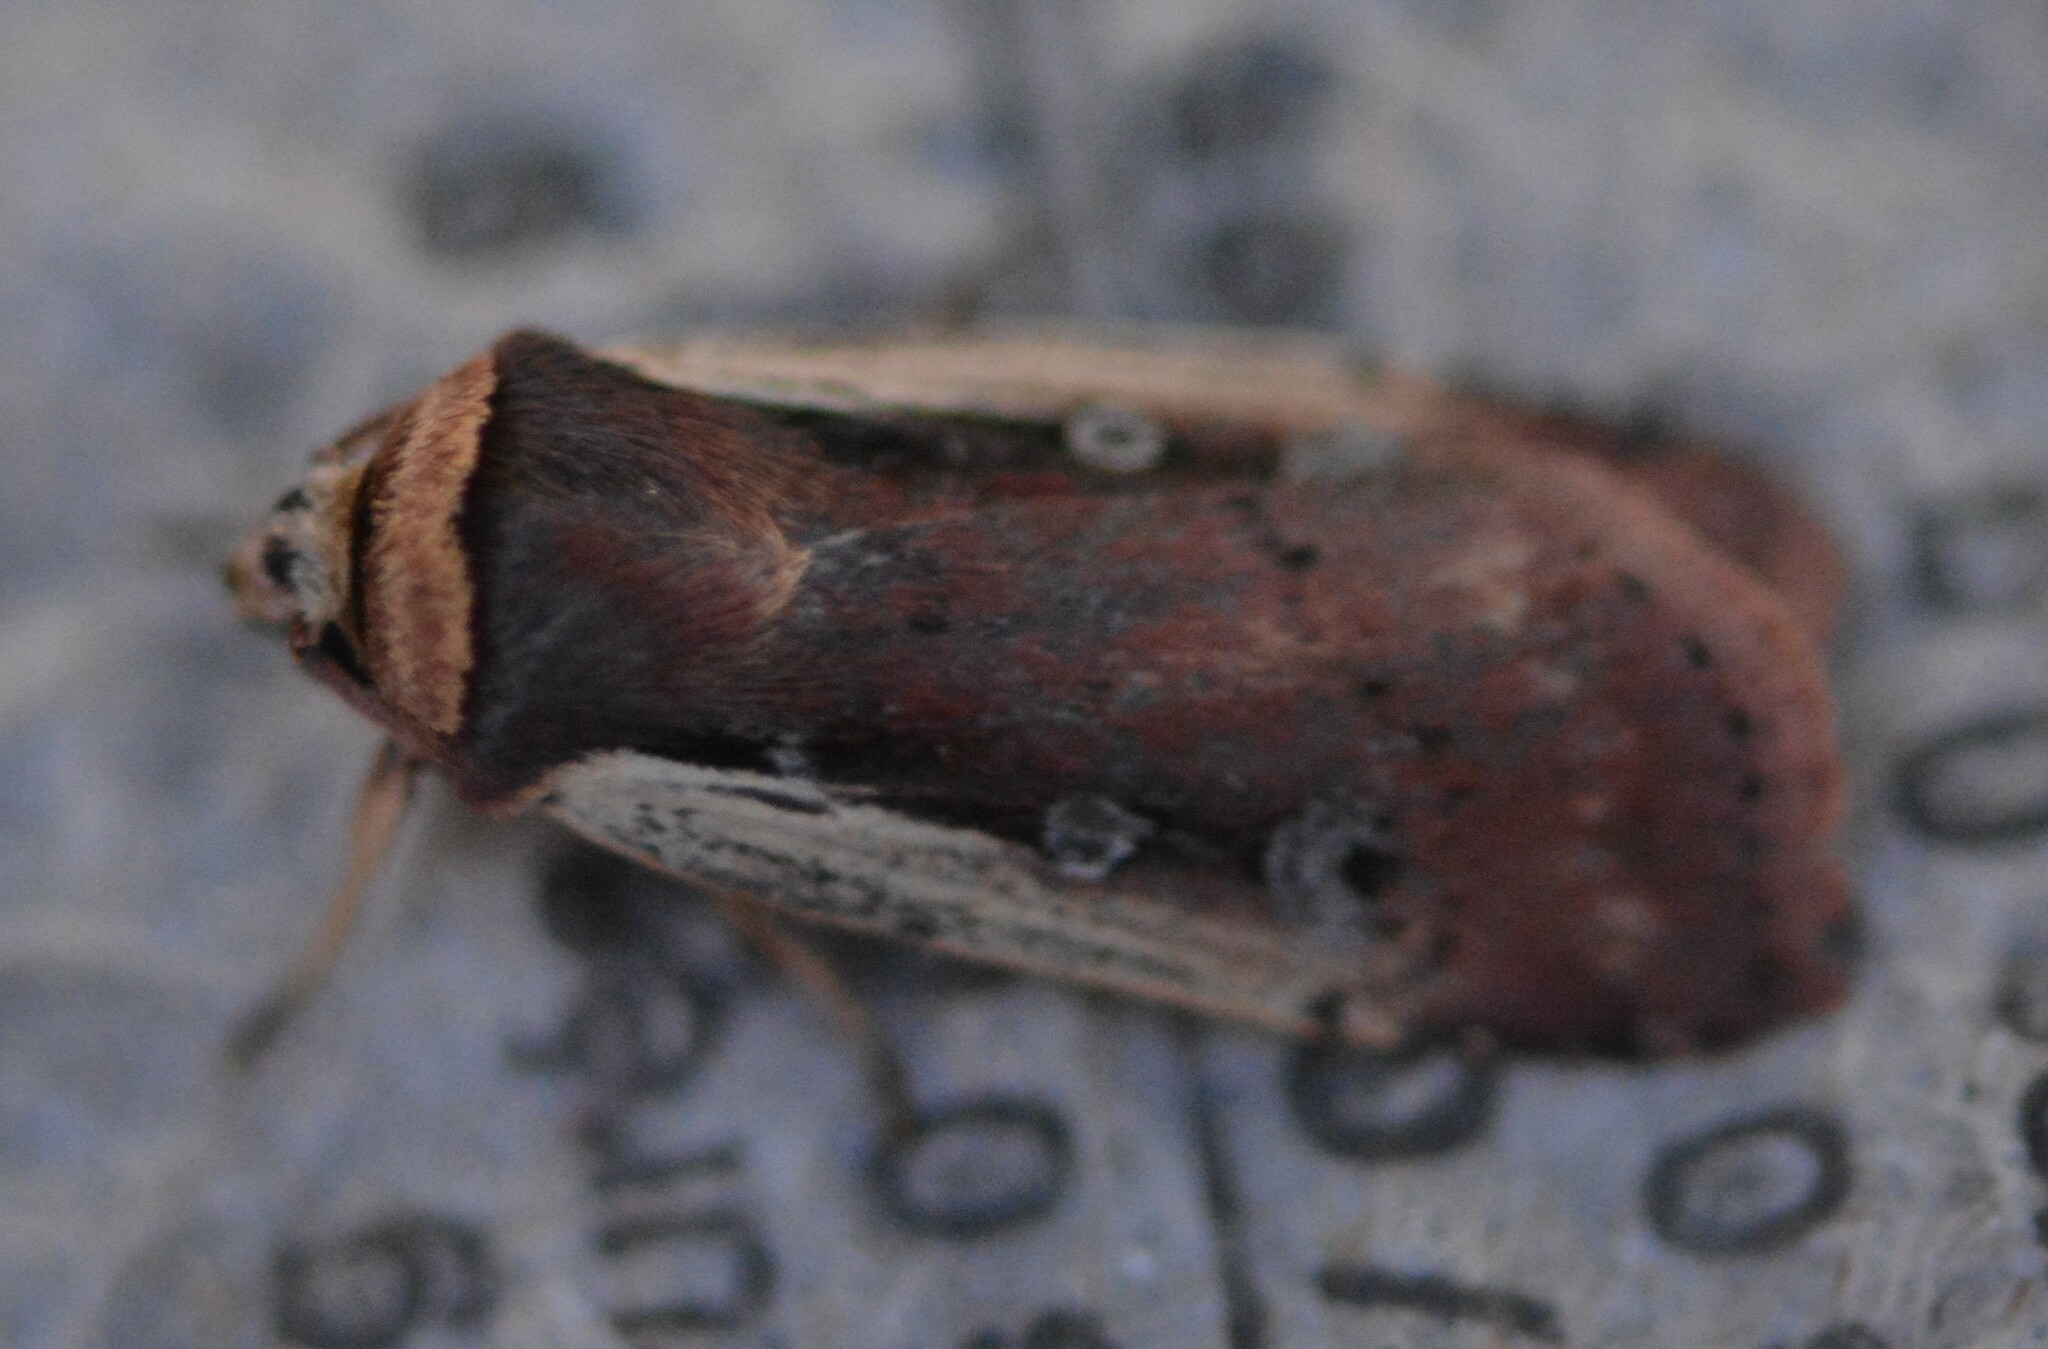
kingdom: Animalia
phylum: Arthropoda
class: Insecta
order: Lepidoptera
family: Noctuidae
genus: Ochropleura
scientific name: Ochropleura implecta
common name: Flame-shouldered dart
